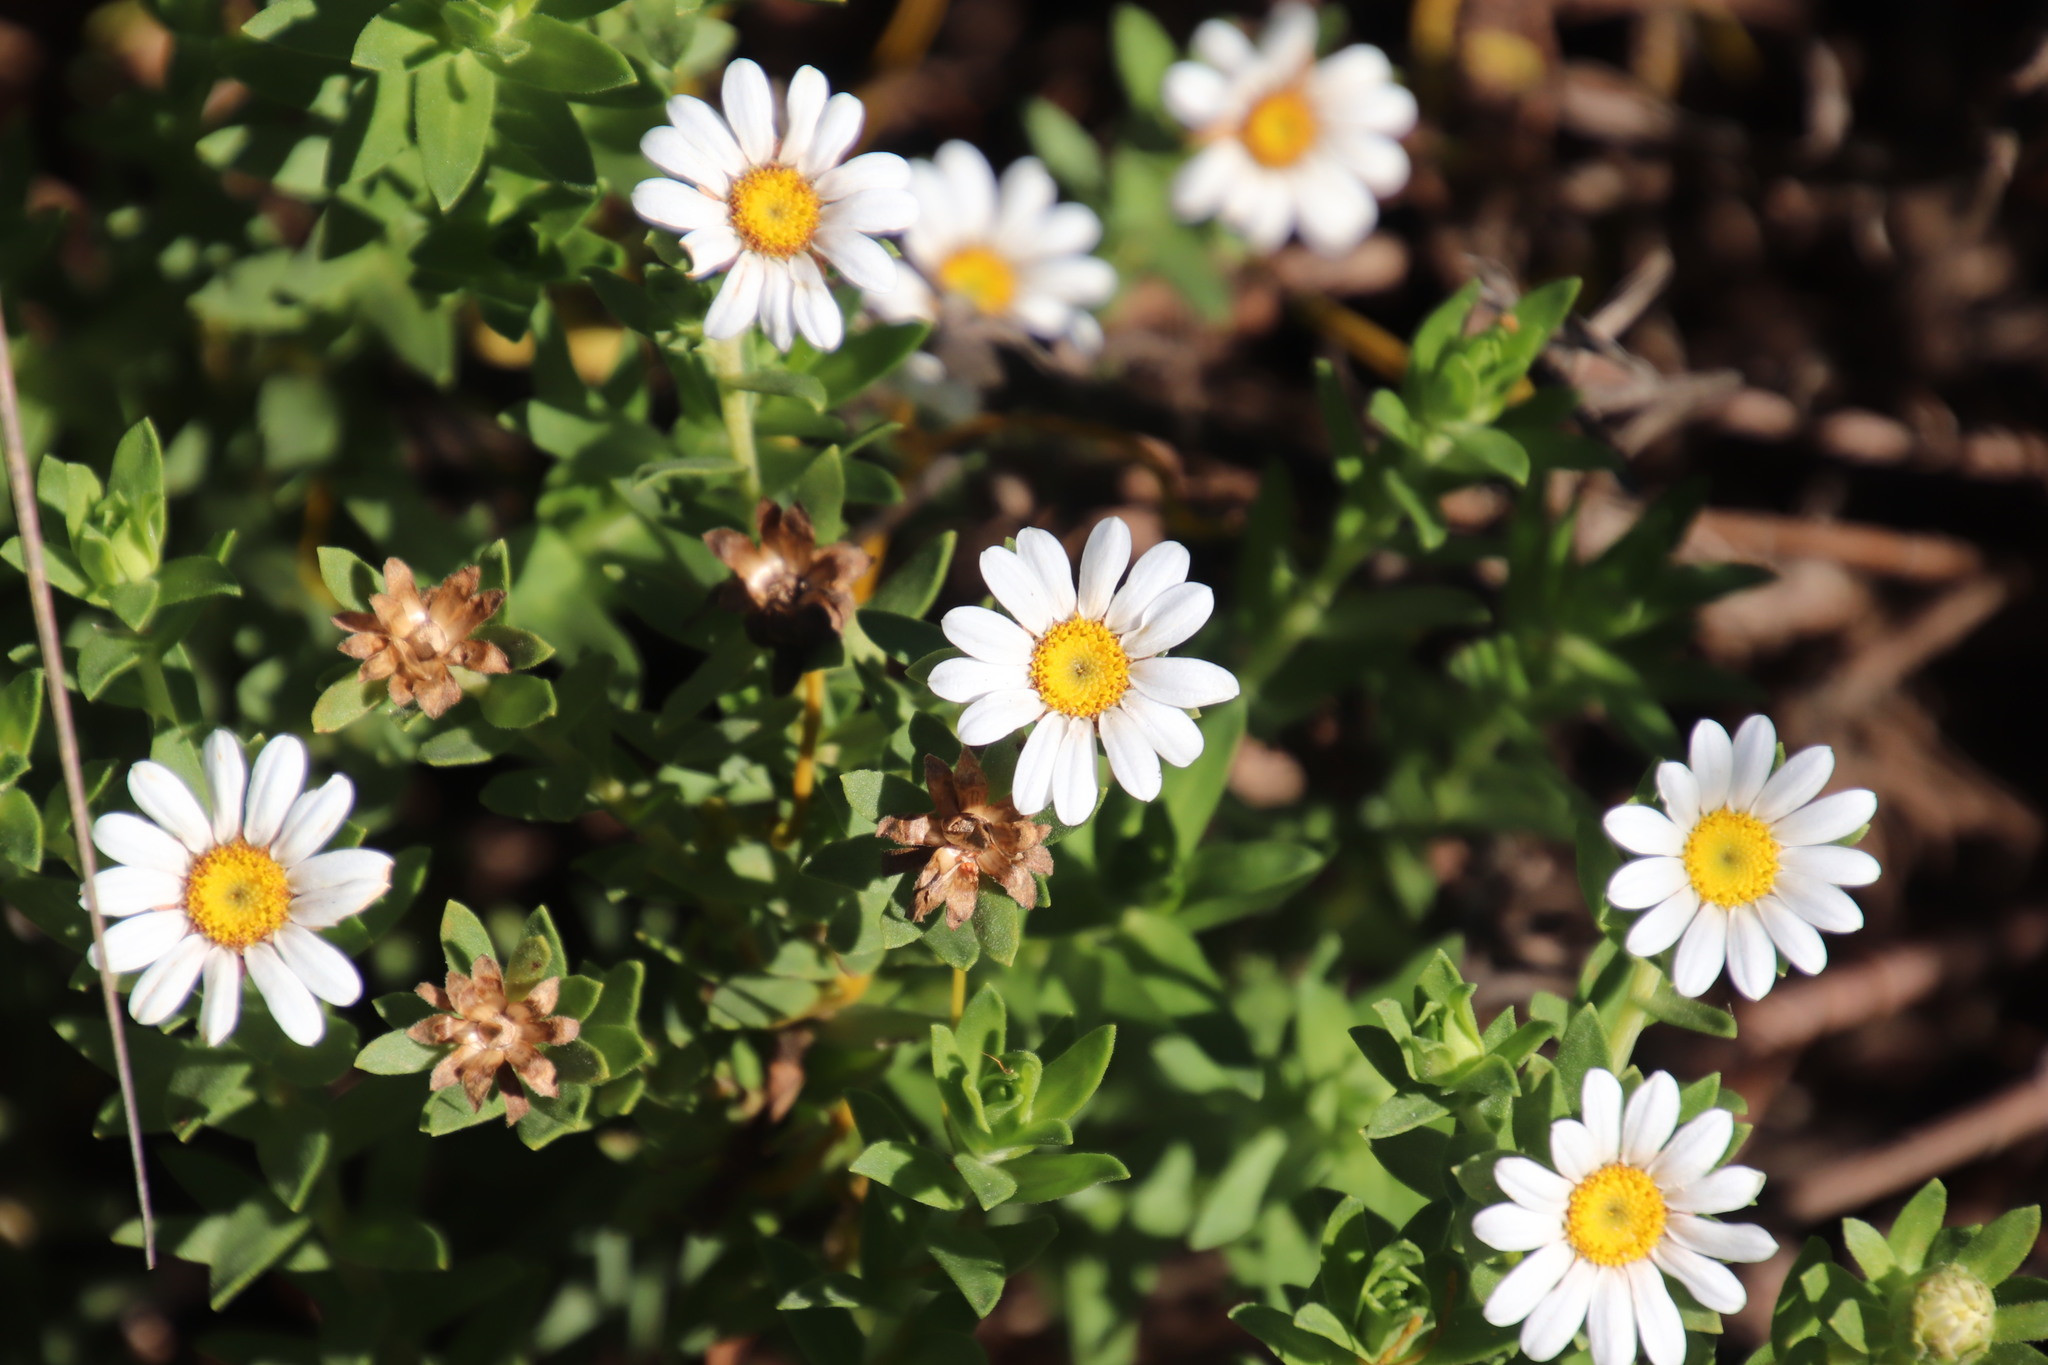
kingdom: Plantae
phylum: Tracheophyta
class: Magnoliopsida
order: Asterales
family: Asteraceae
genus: Osmitopsis
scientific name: Osmitopsis asteriscoides
